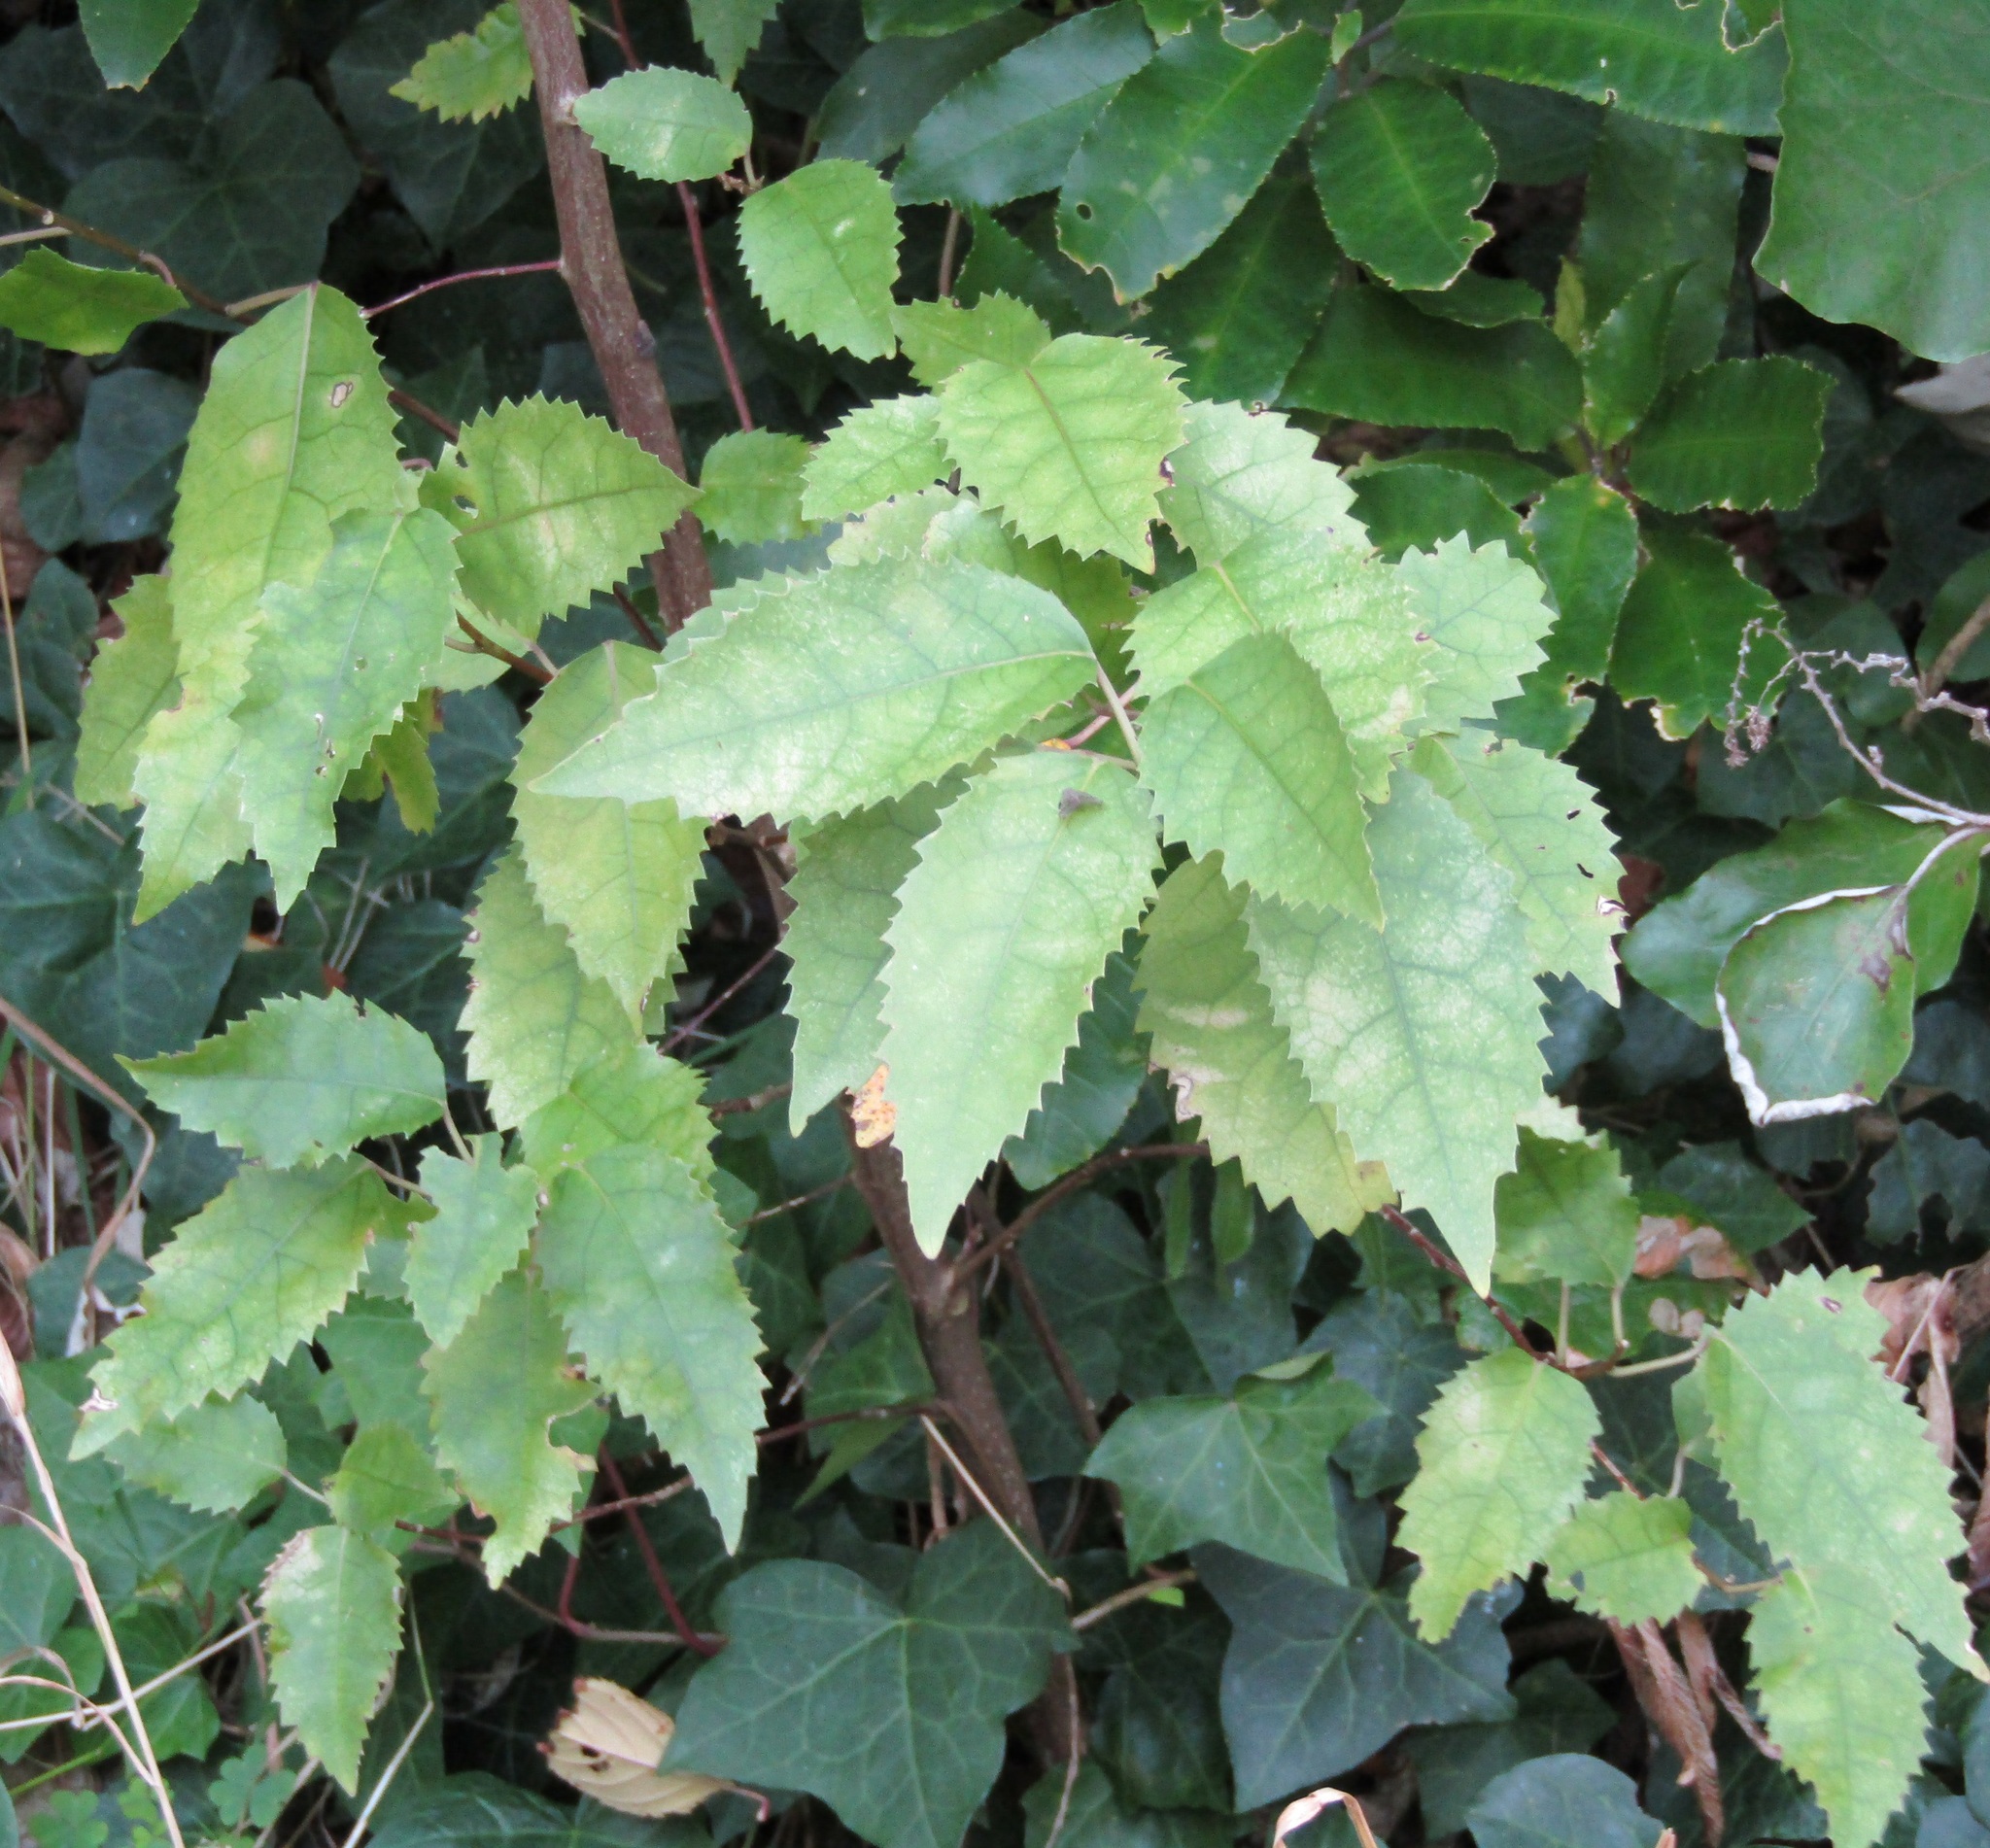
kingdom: Plantae
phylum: Tracheophyta
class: Magnoliopsida
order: Malvales
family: Malvaceae
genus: Hoheria
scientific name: Hoheria populnea
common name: Lacebark
